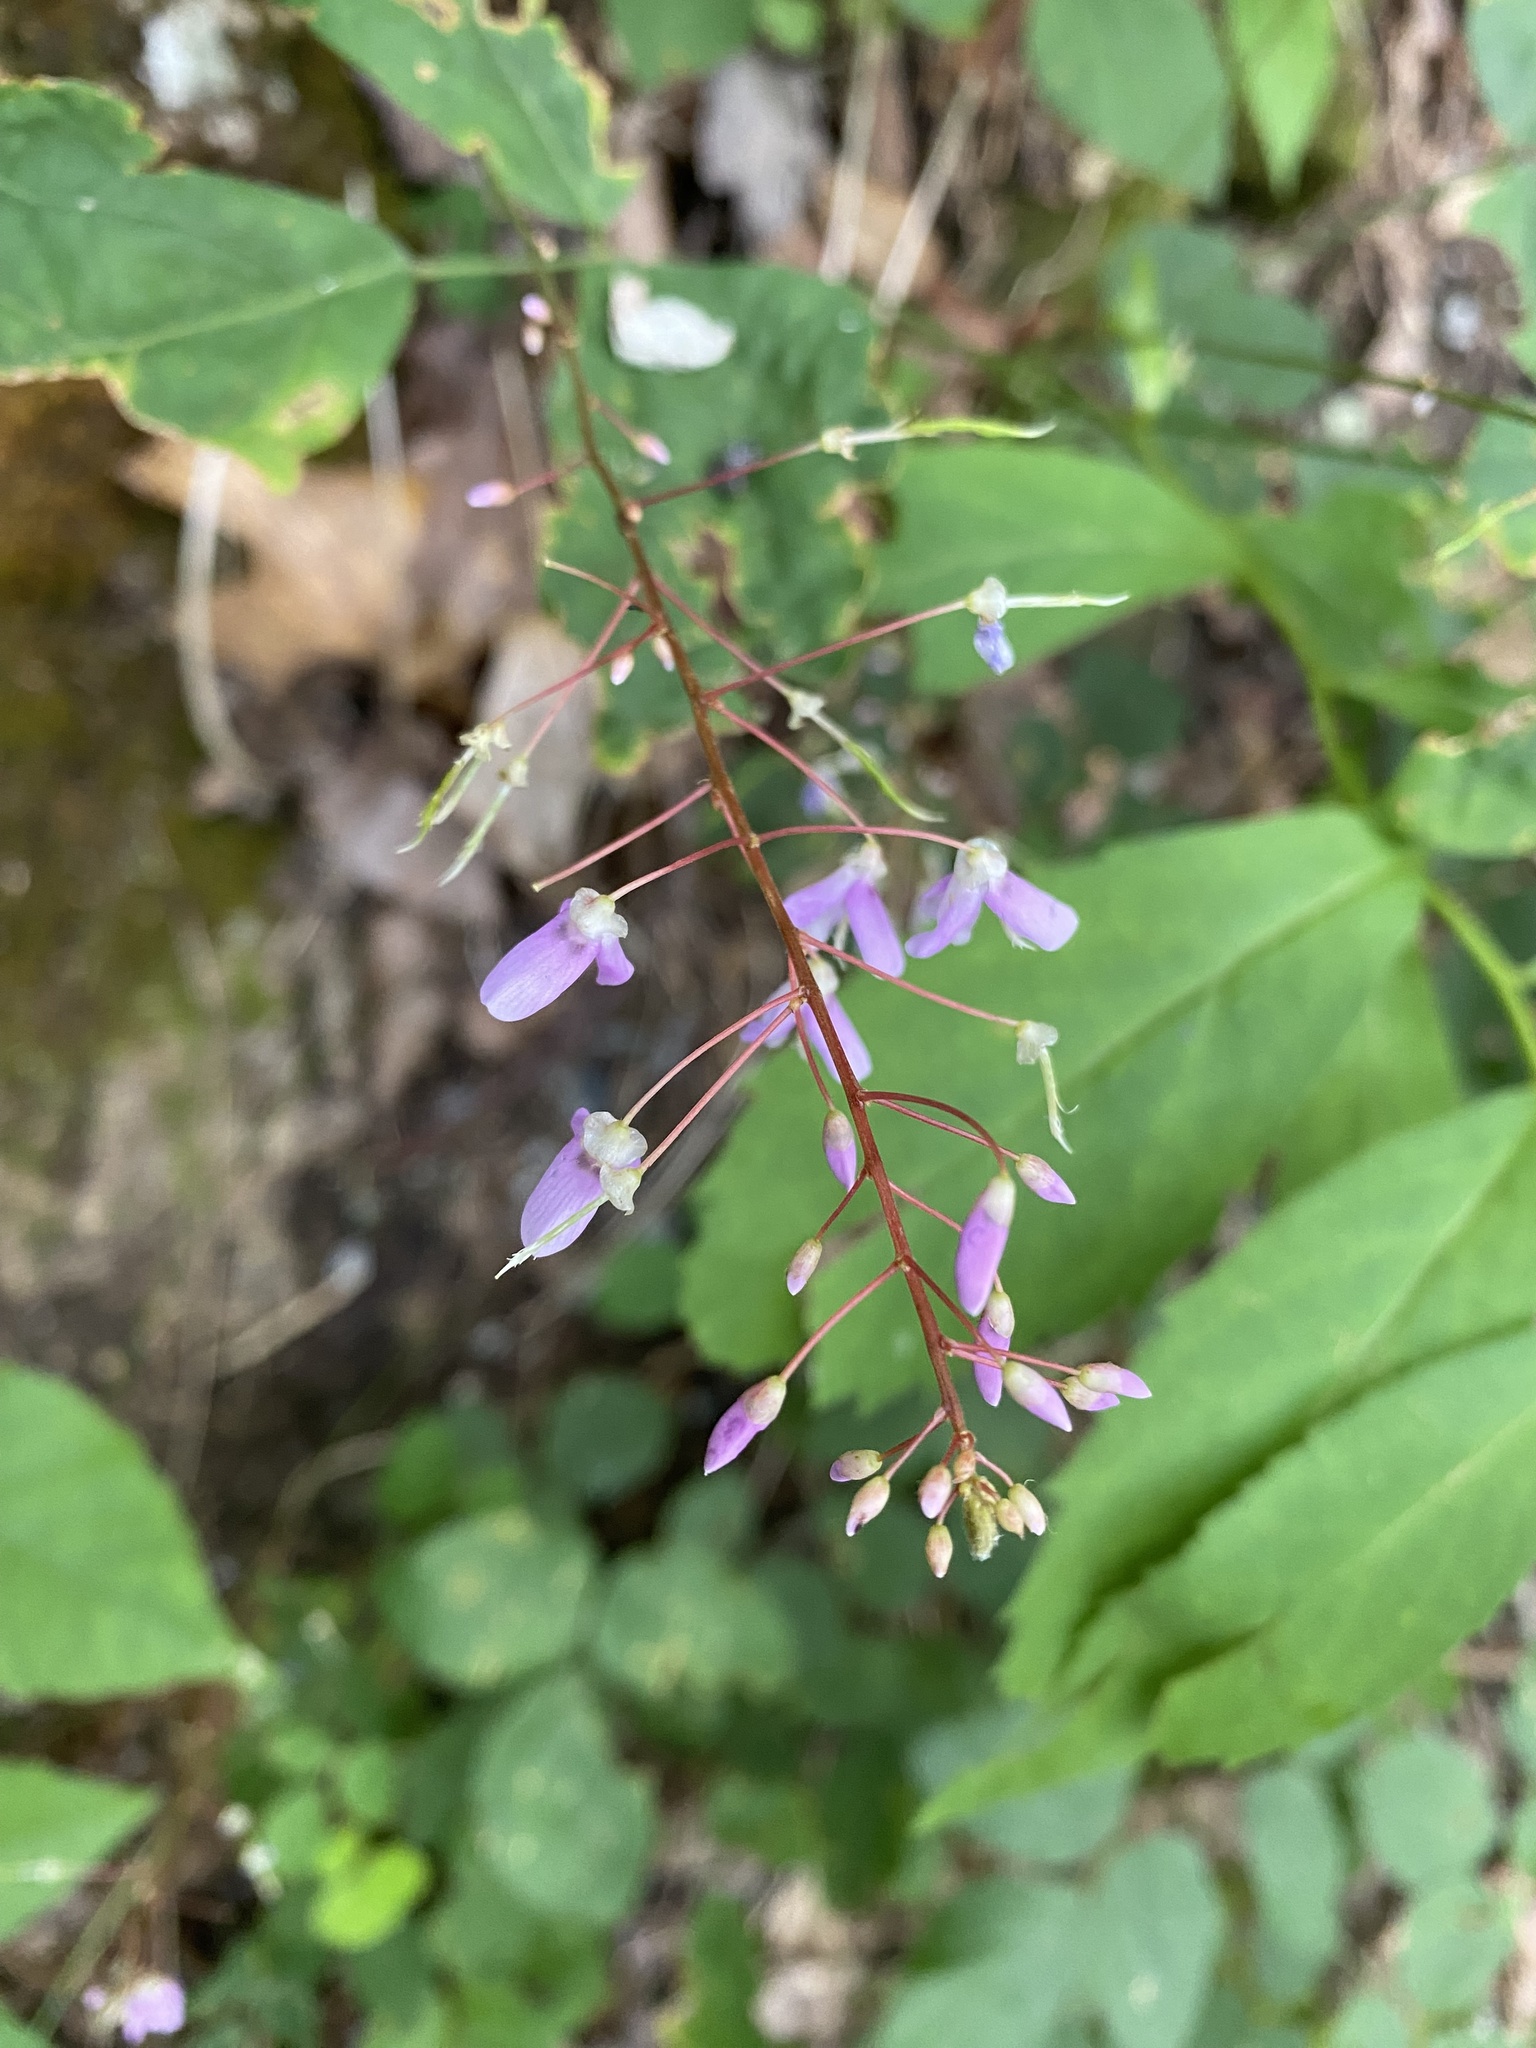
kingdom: Plantae
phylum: Tracheophyta
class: Magnoliopsida
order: Fabales
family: Fabaceae
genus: Hylodesmum
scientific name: Hylodesmum nudiflorum
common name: Bare-stemmed tick-trefoil
